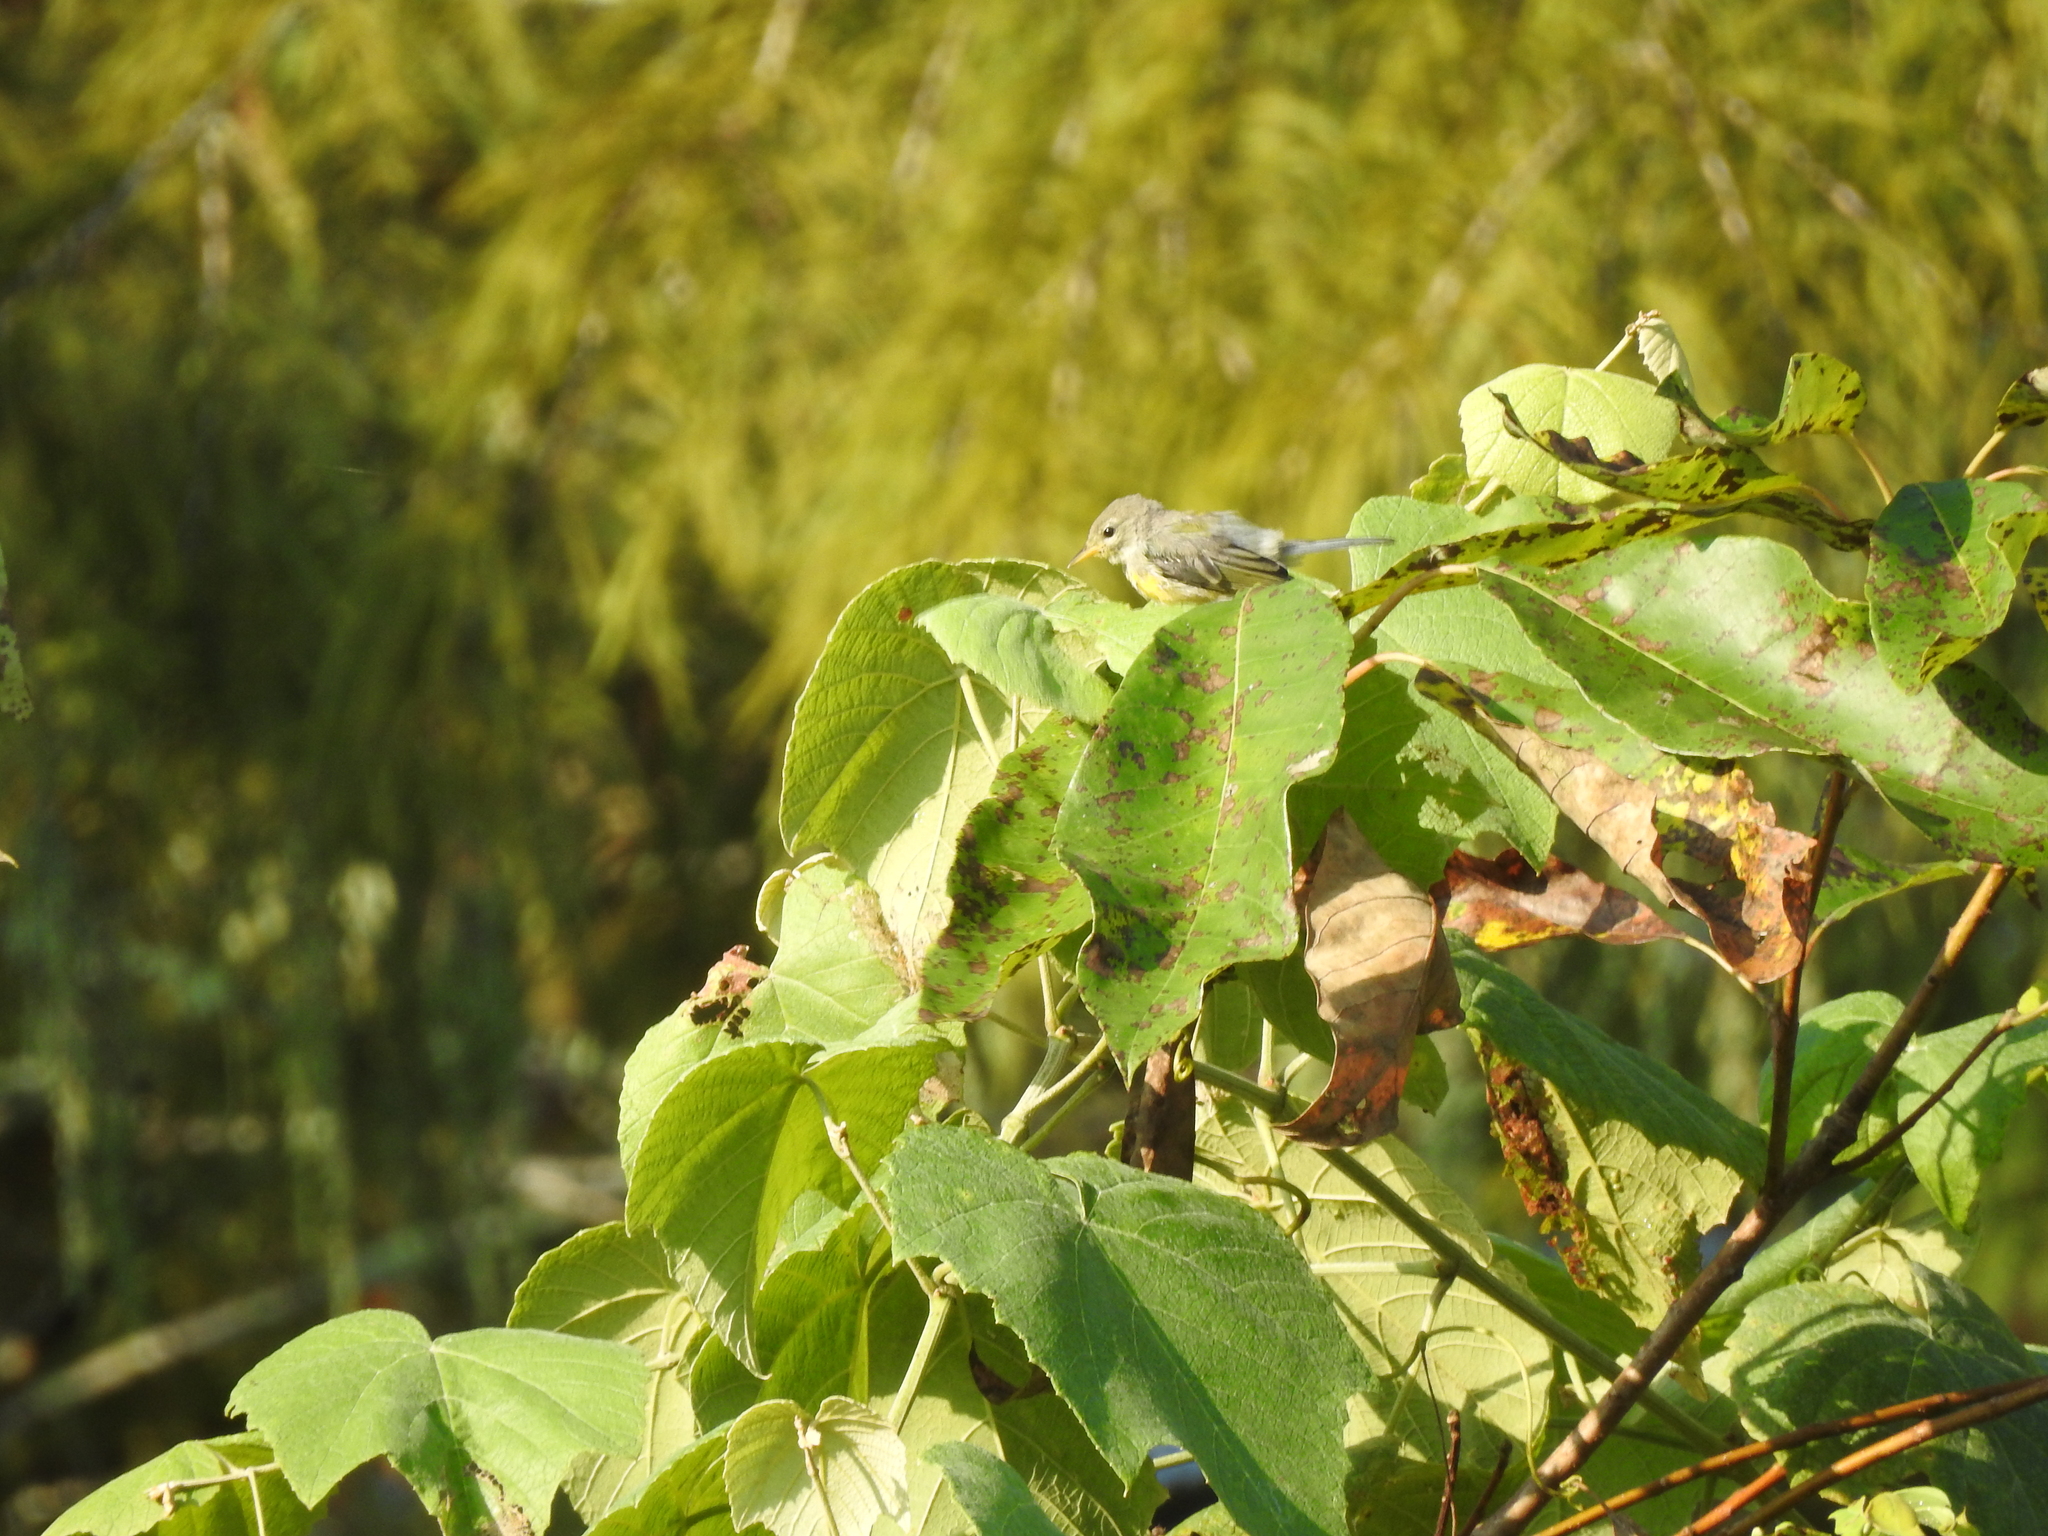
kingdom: Animalia
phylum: Chordata
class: Aves
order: Passeriformes
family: Parulidae
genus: Setophaga
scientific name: Setophaga americana
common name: Northern parula
